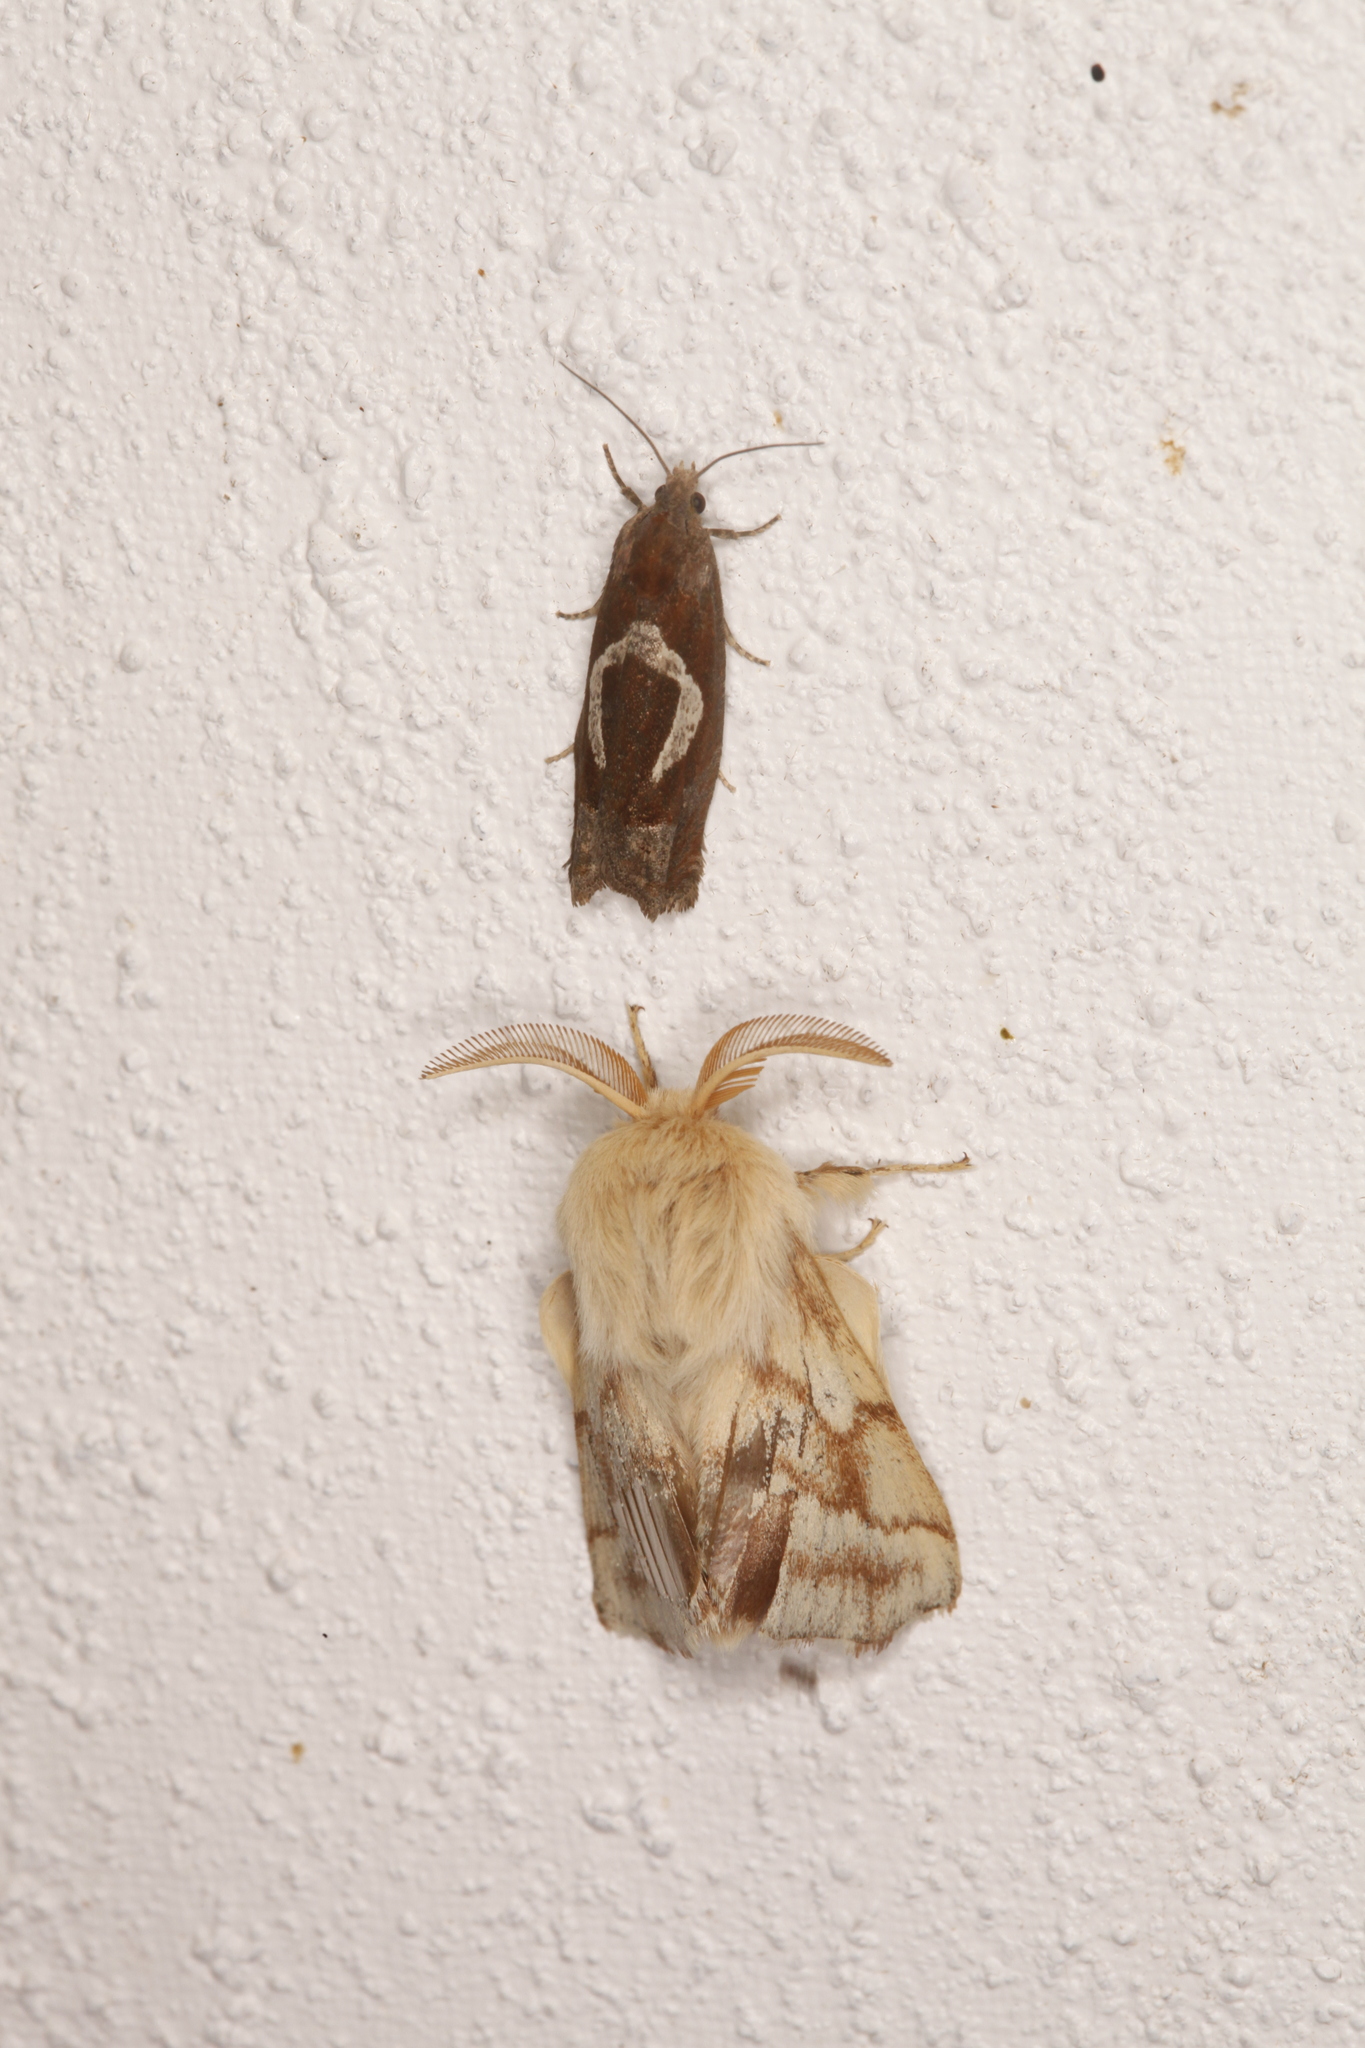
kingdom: Animalia
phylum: Arthropoda
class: Insecta
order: Lepidoptera
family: Lasiocampidae
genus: Malacosoma
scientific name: Malacosoma castrense
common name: Ground lackey
